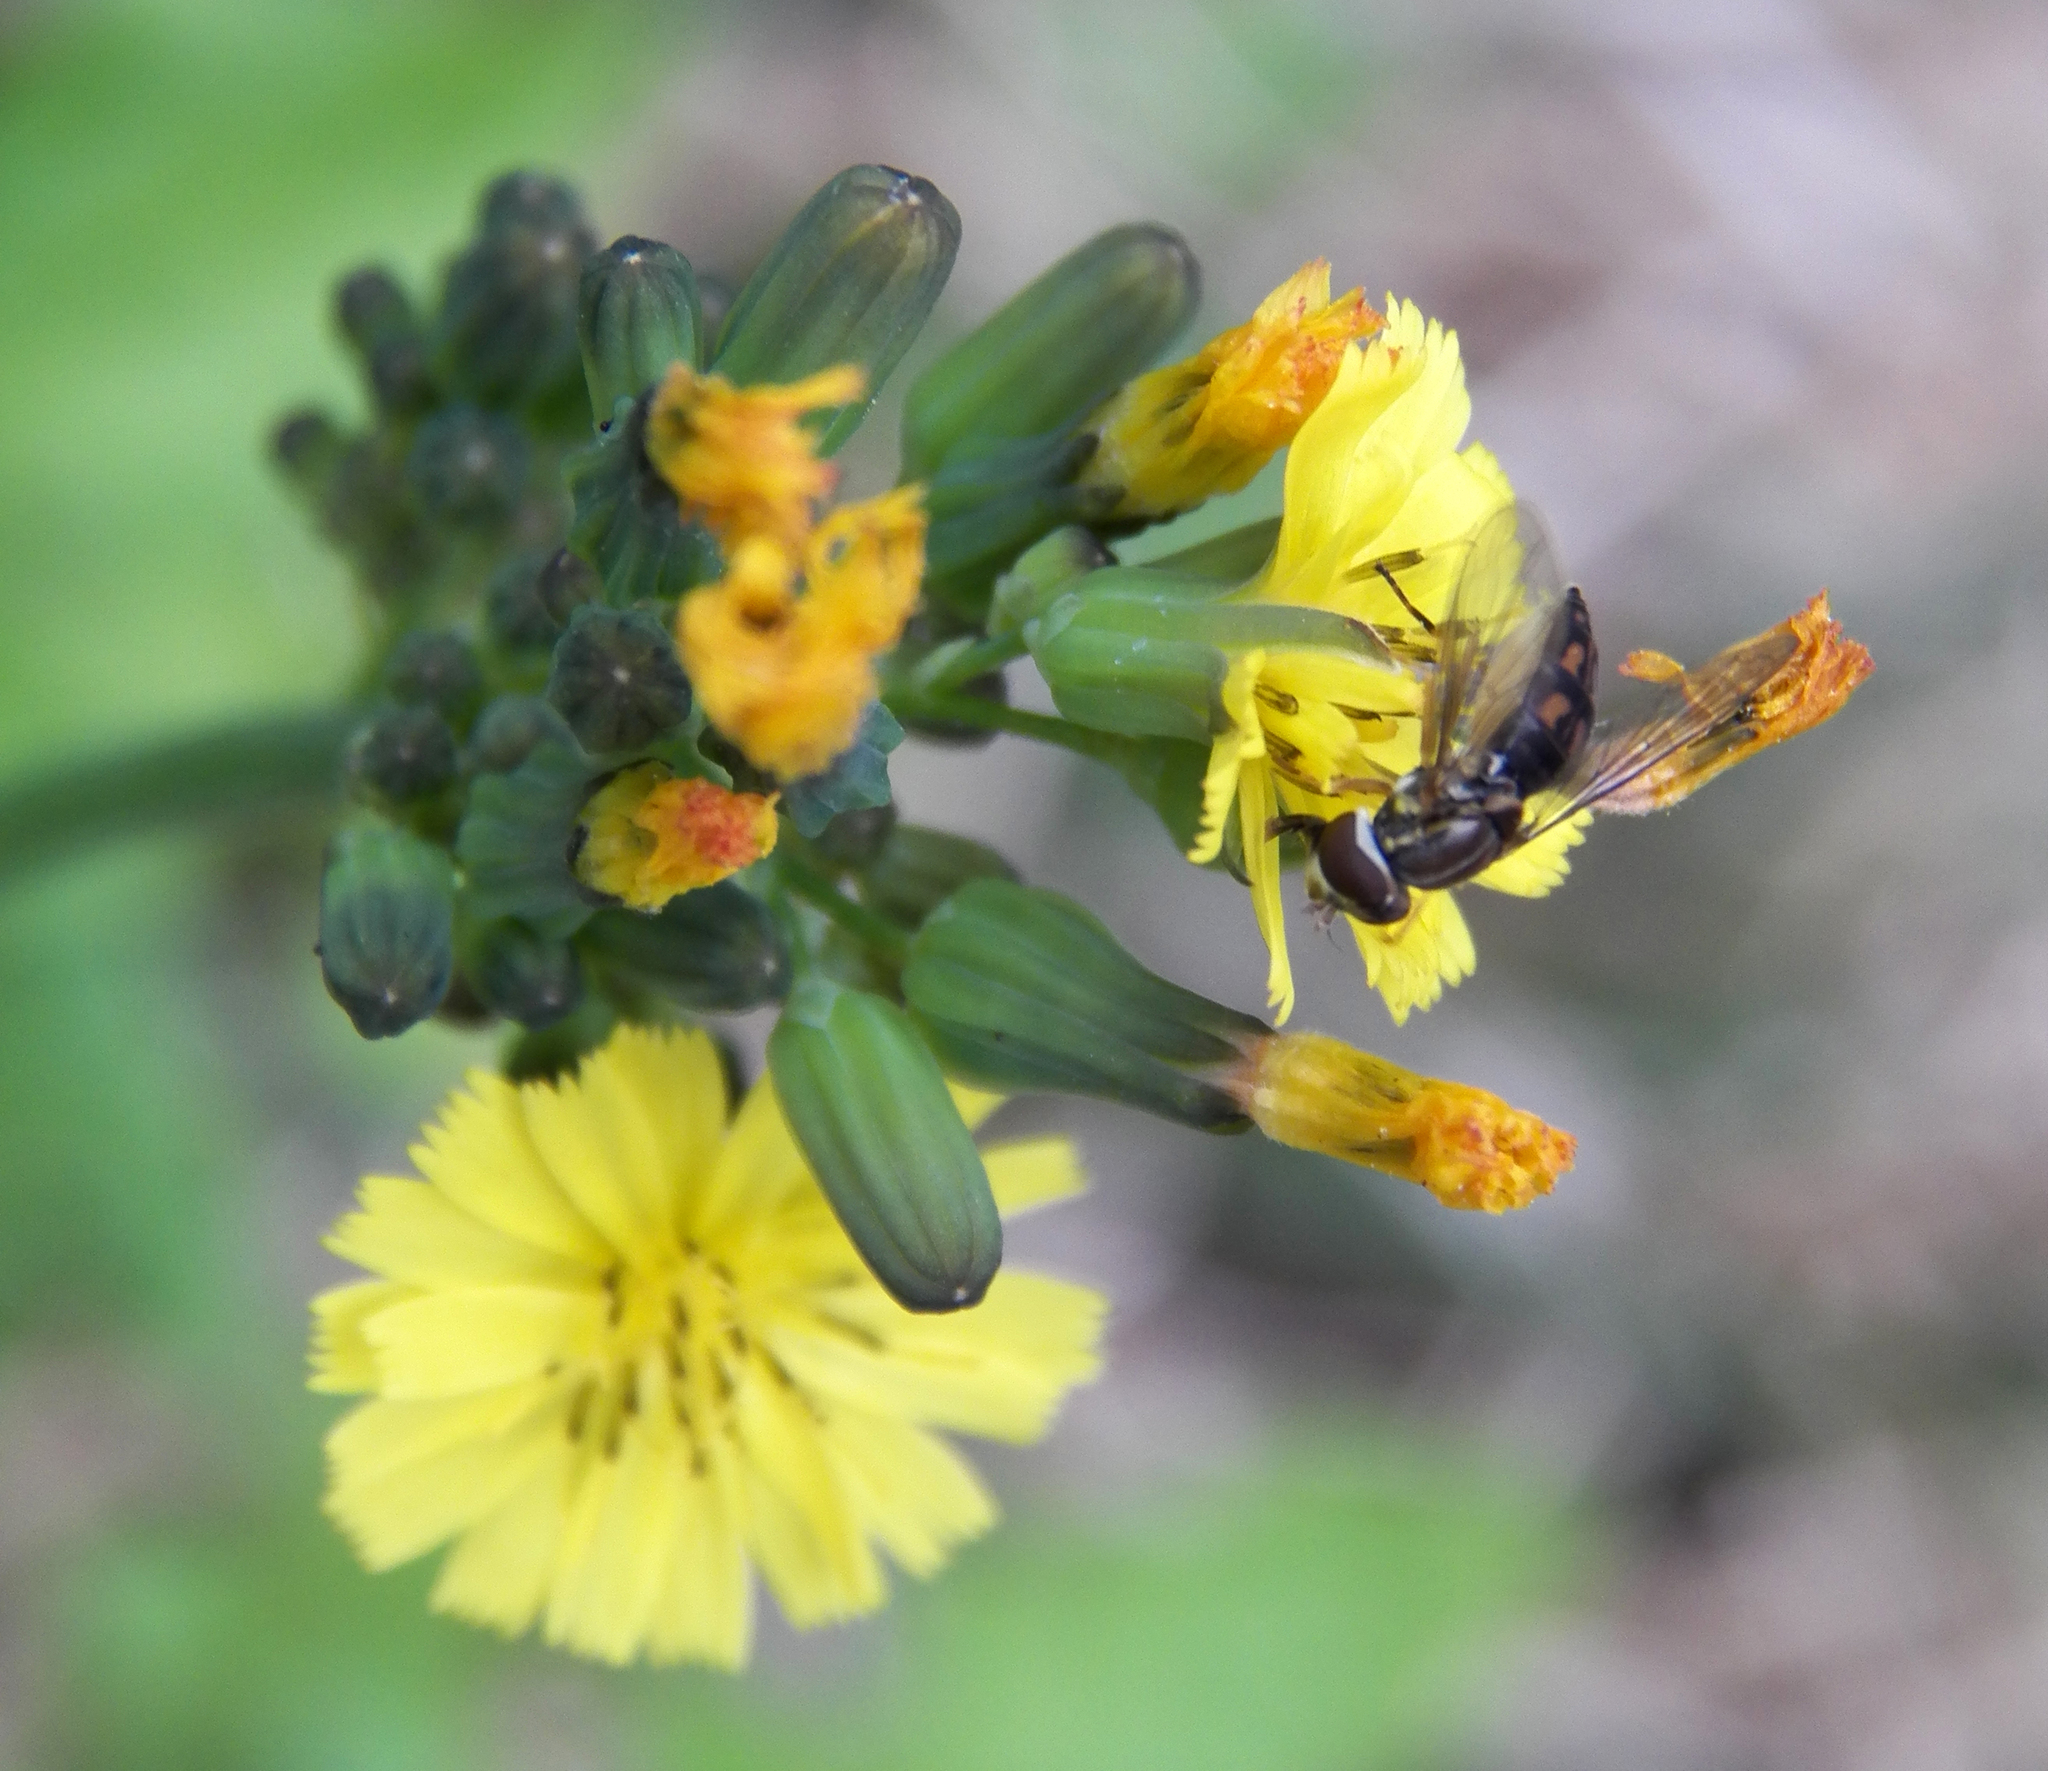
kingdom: Animalia
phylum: Arthropoda
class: Insecta
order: Diptera
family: Syrphidae
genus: Toxomerus
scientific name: Toxomerus marginatus
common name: Syrphid fly
